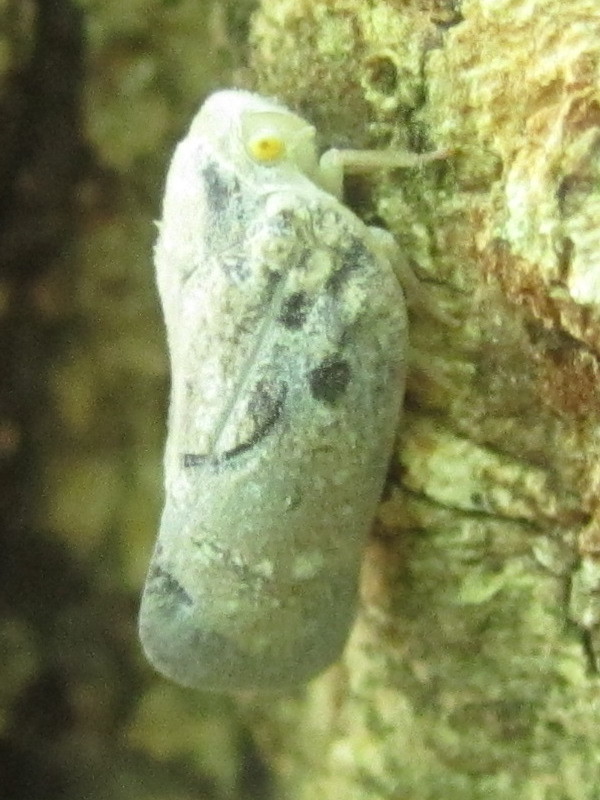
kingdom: Animalia
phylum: Arthropoda
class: Insecta
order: Hemiptera
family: Flatidae
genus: Metcalfa
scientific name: Metcalfa pruinosa
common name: Citrus flatid planthopper
